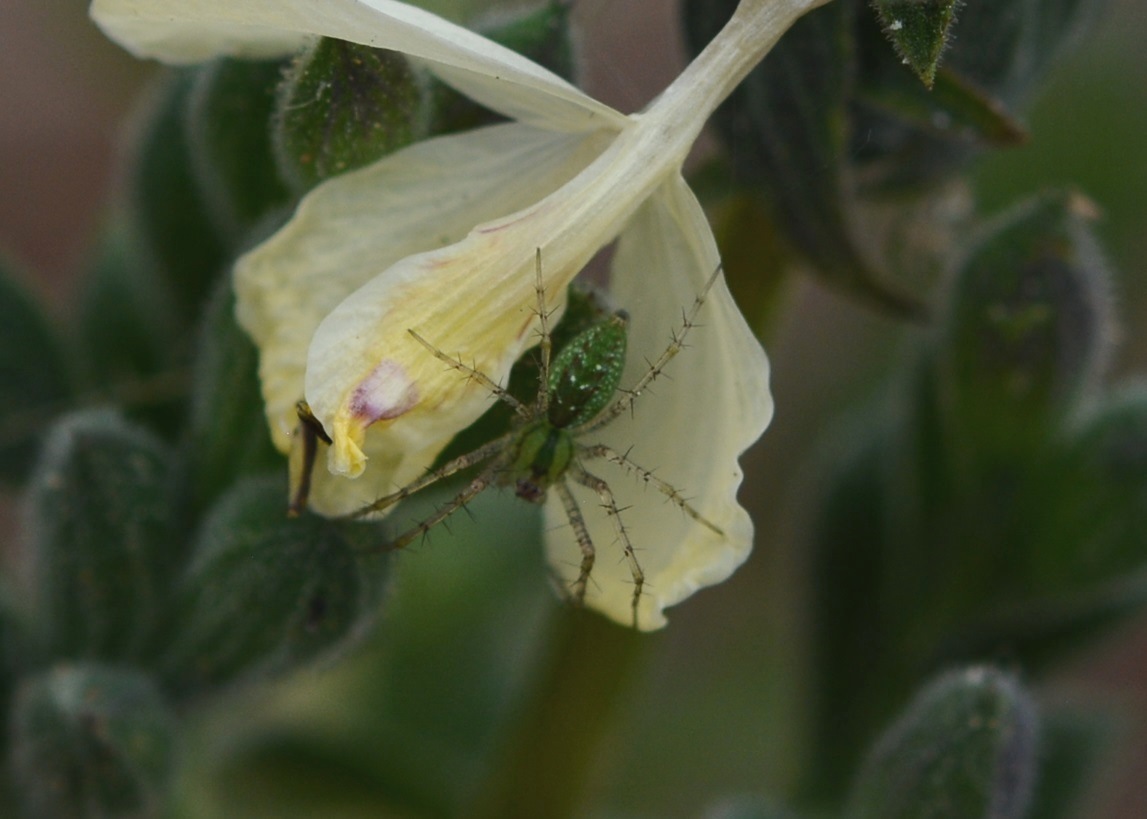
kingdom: Animalia
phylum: Arthropoda
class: Arachnida
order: Araneae
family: Oxyopidae
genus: Peucetia
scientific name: Peucetia viridans
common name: Lynx spiders
